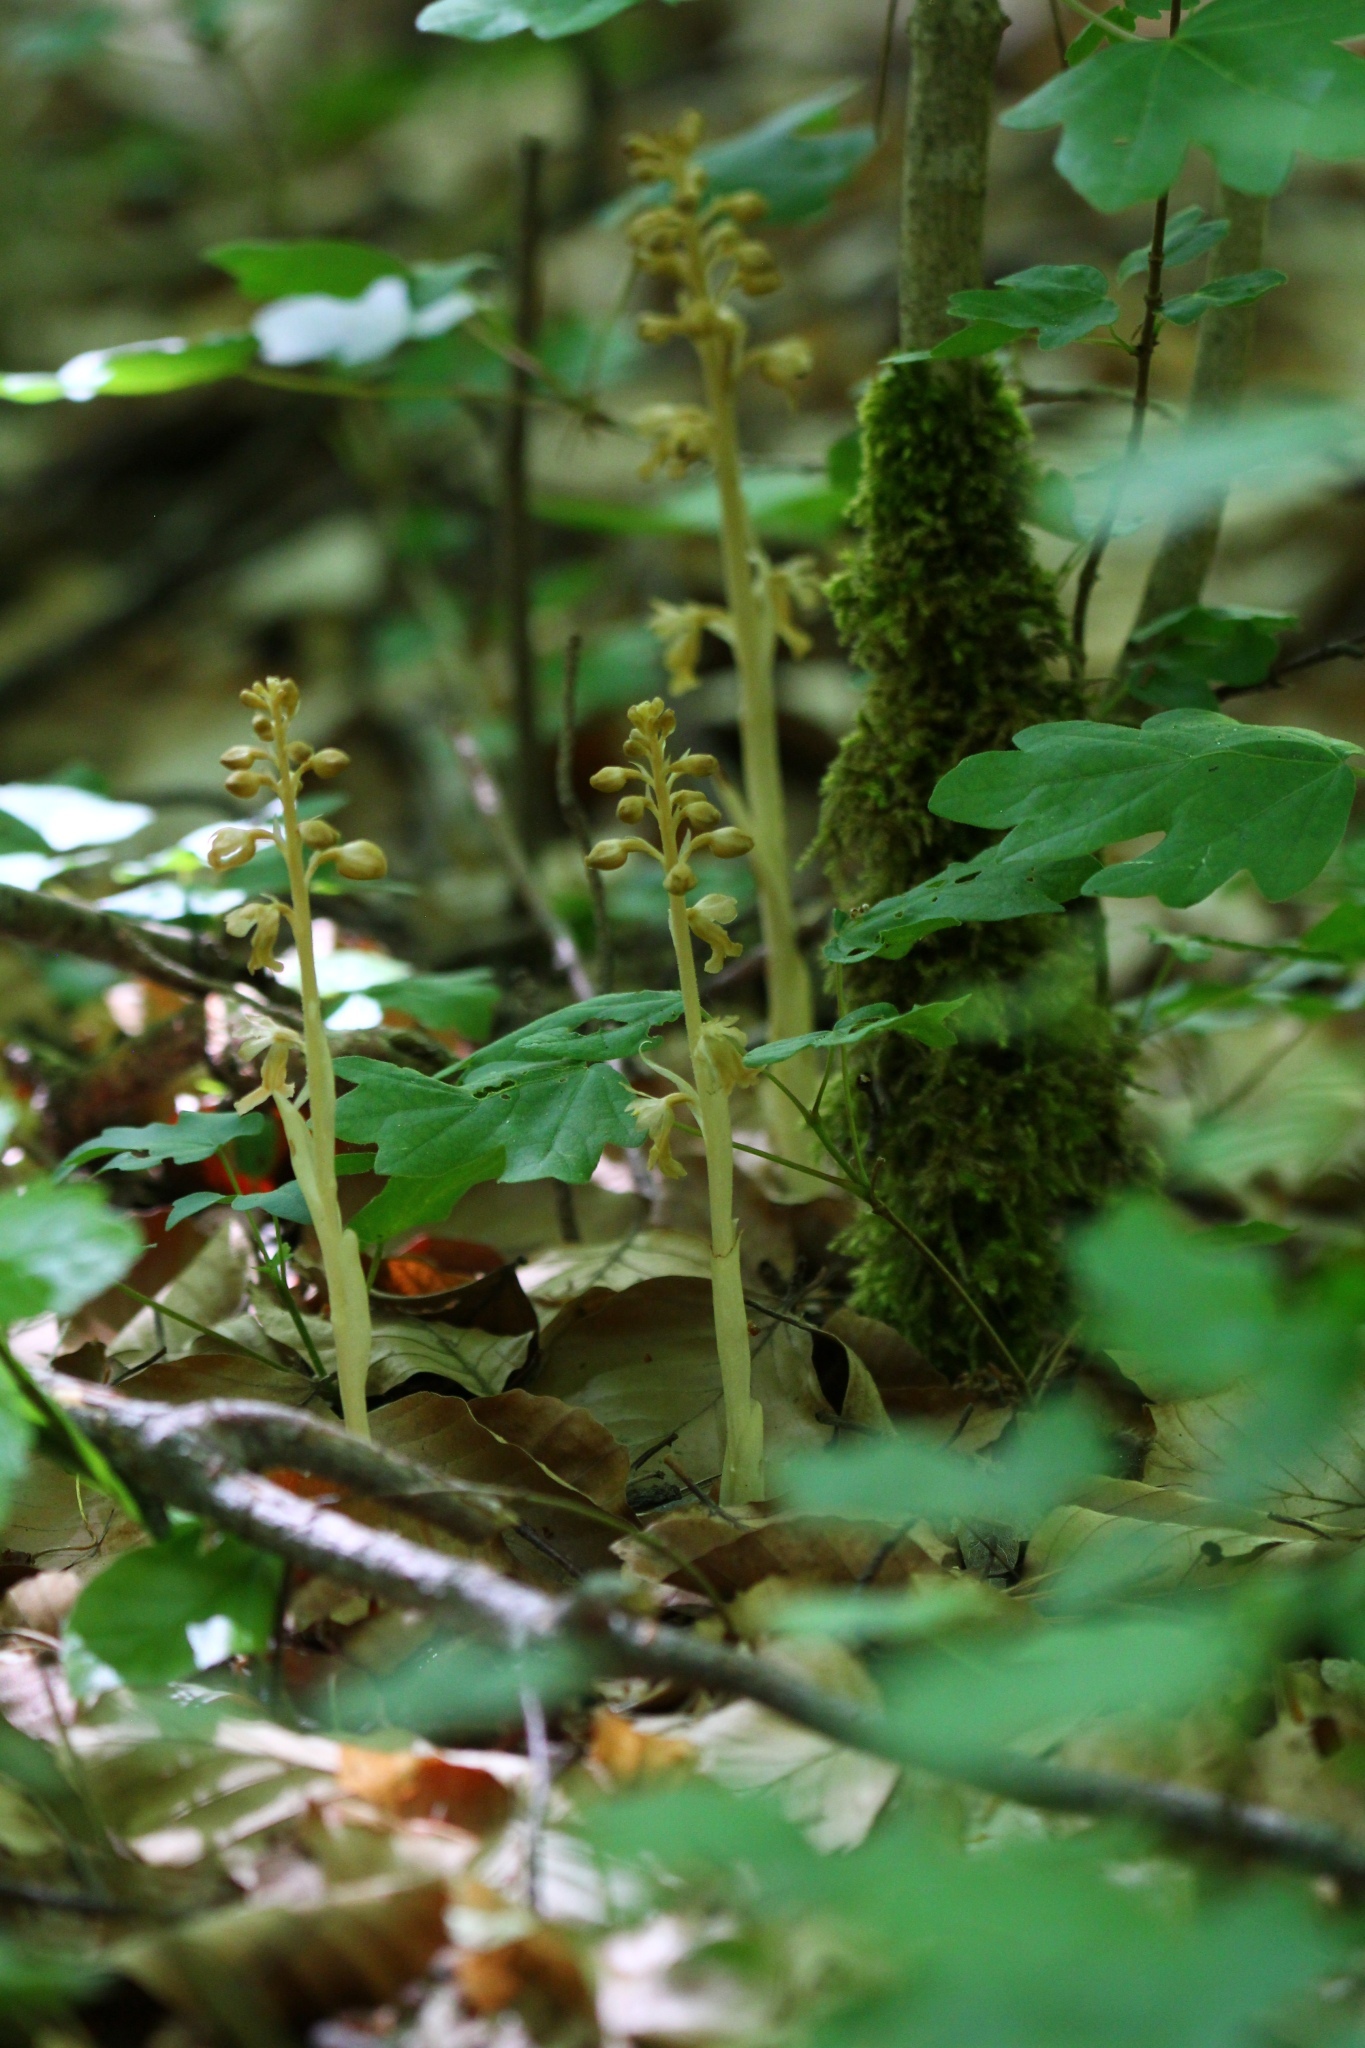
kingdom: Plantae
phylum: Tracheophyta
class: Liliopsida
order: Asparagales
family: Orchidaceae
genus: Neottia
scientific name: Neottia nidus-avis
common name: Bird's-nest orchid
